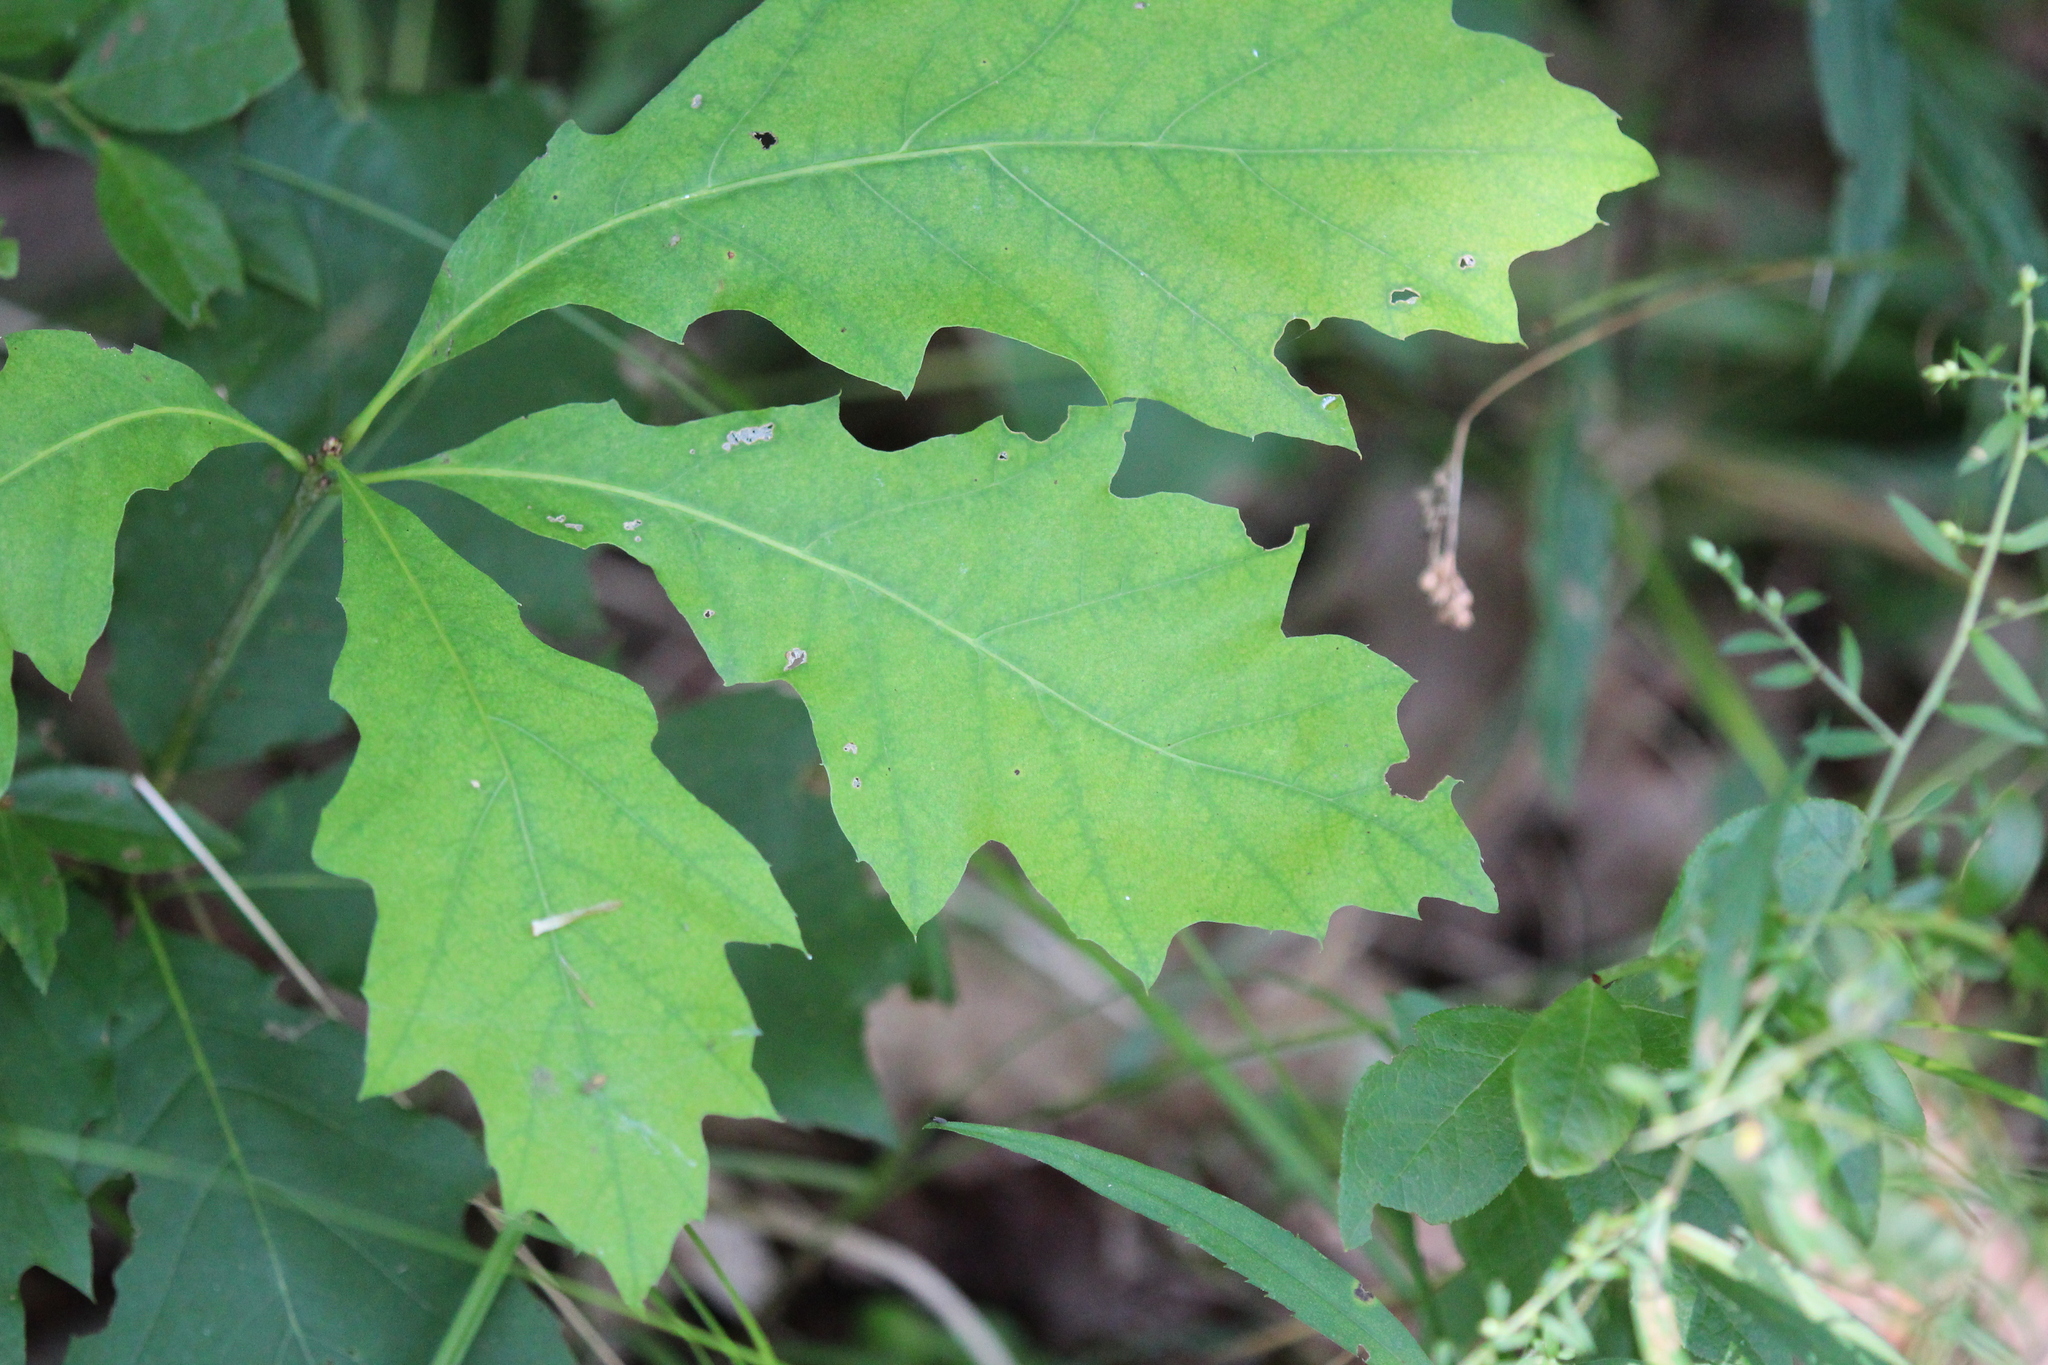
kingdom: Plantae
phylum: Tracheophyta
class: Magnoliopsida
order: Fagales
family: Fagaceae
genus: Quercus
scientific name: Quercus rubra
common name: Red oak
